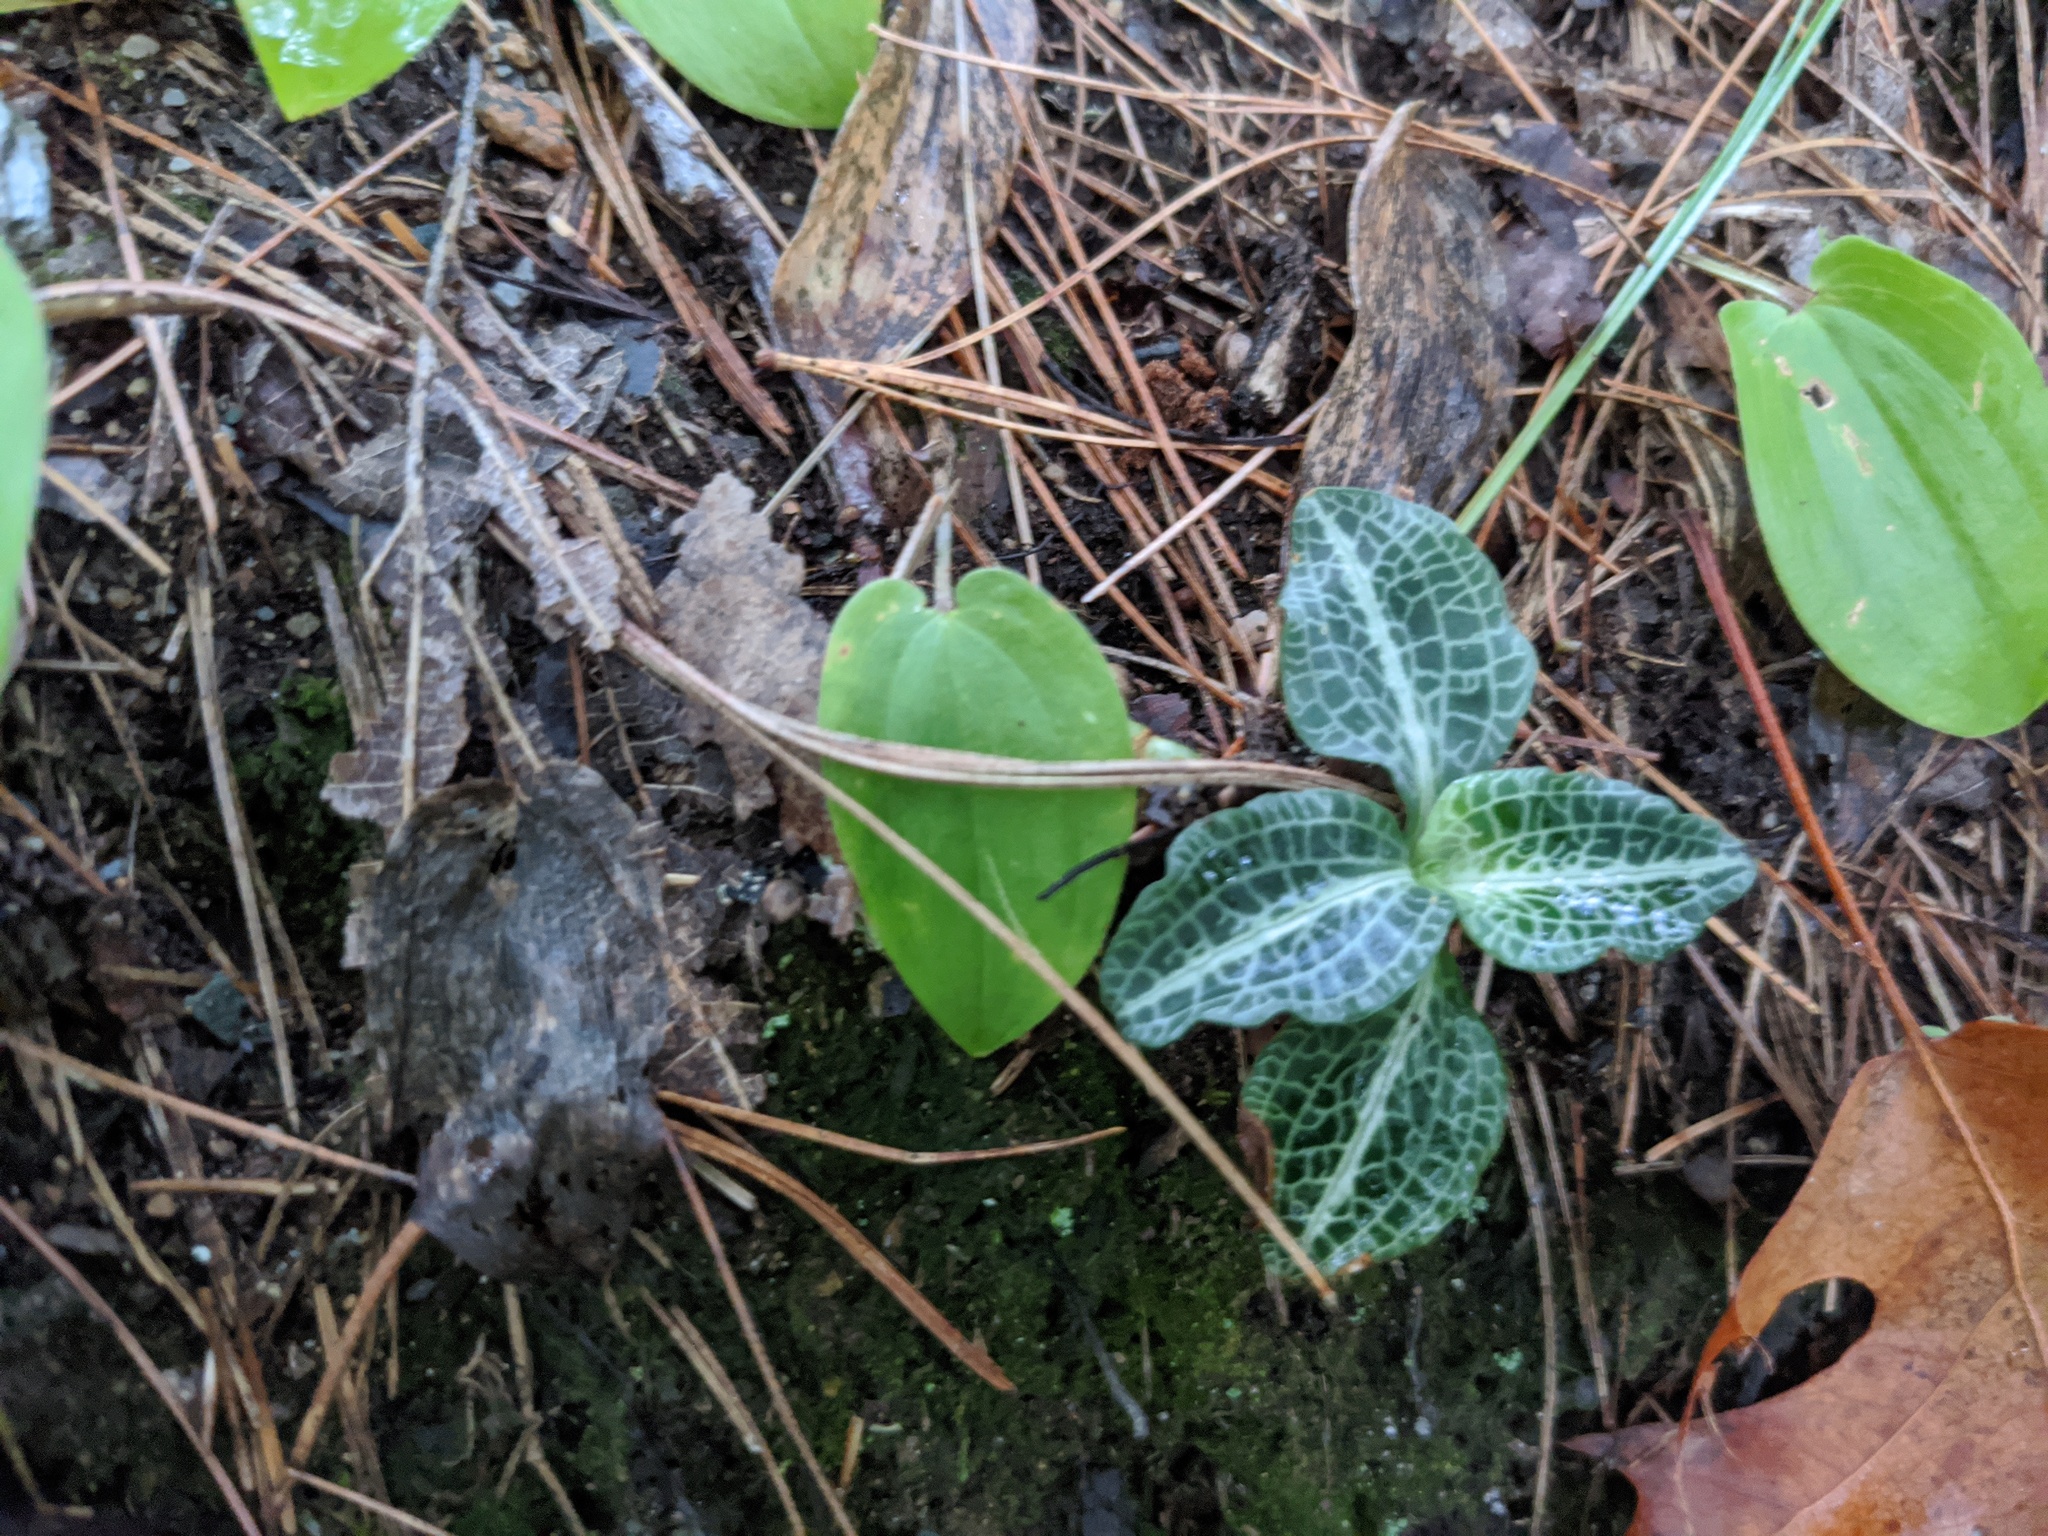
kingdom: Plantae
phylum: Tracheophyta
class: Liliopsida
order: Asparagales
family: Orchidaceae
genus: Goodyera
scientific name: Goodyera pubescens
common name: Downy rattlesnake-plantain
